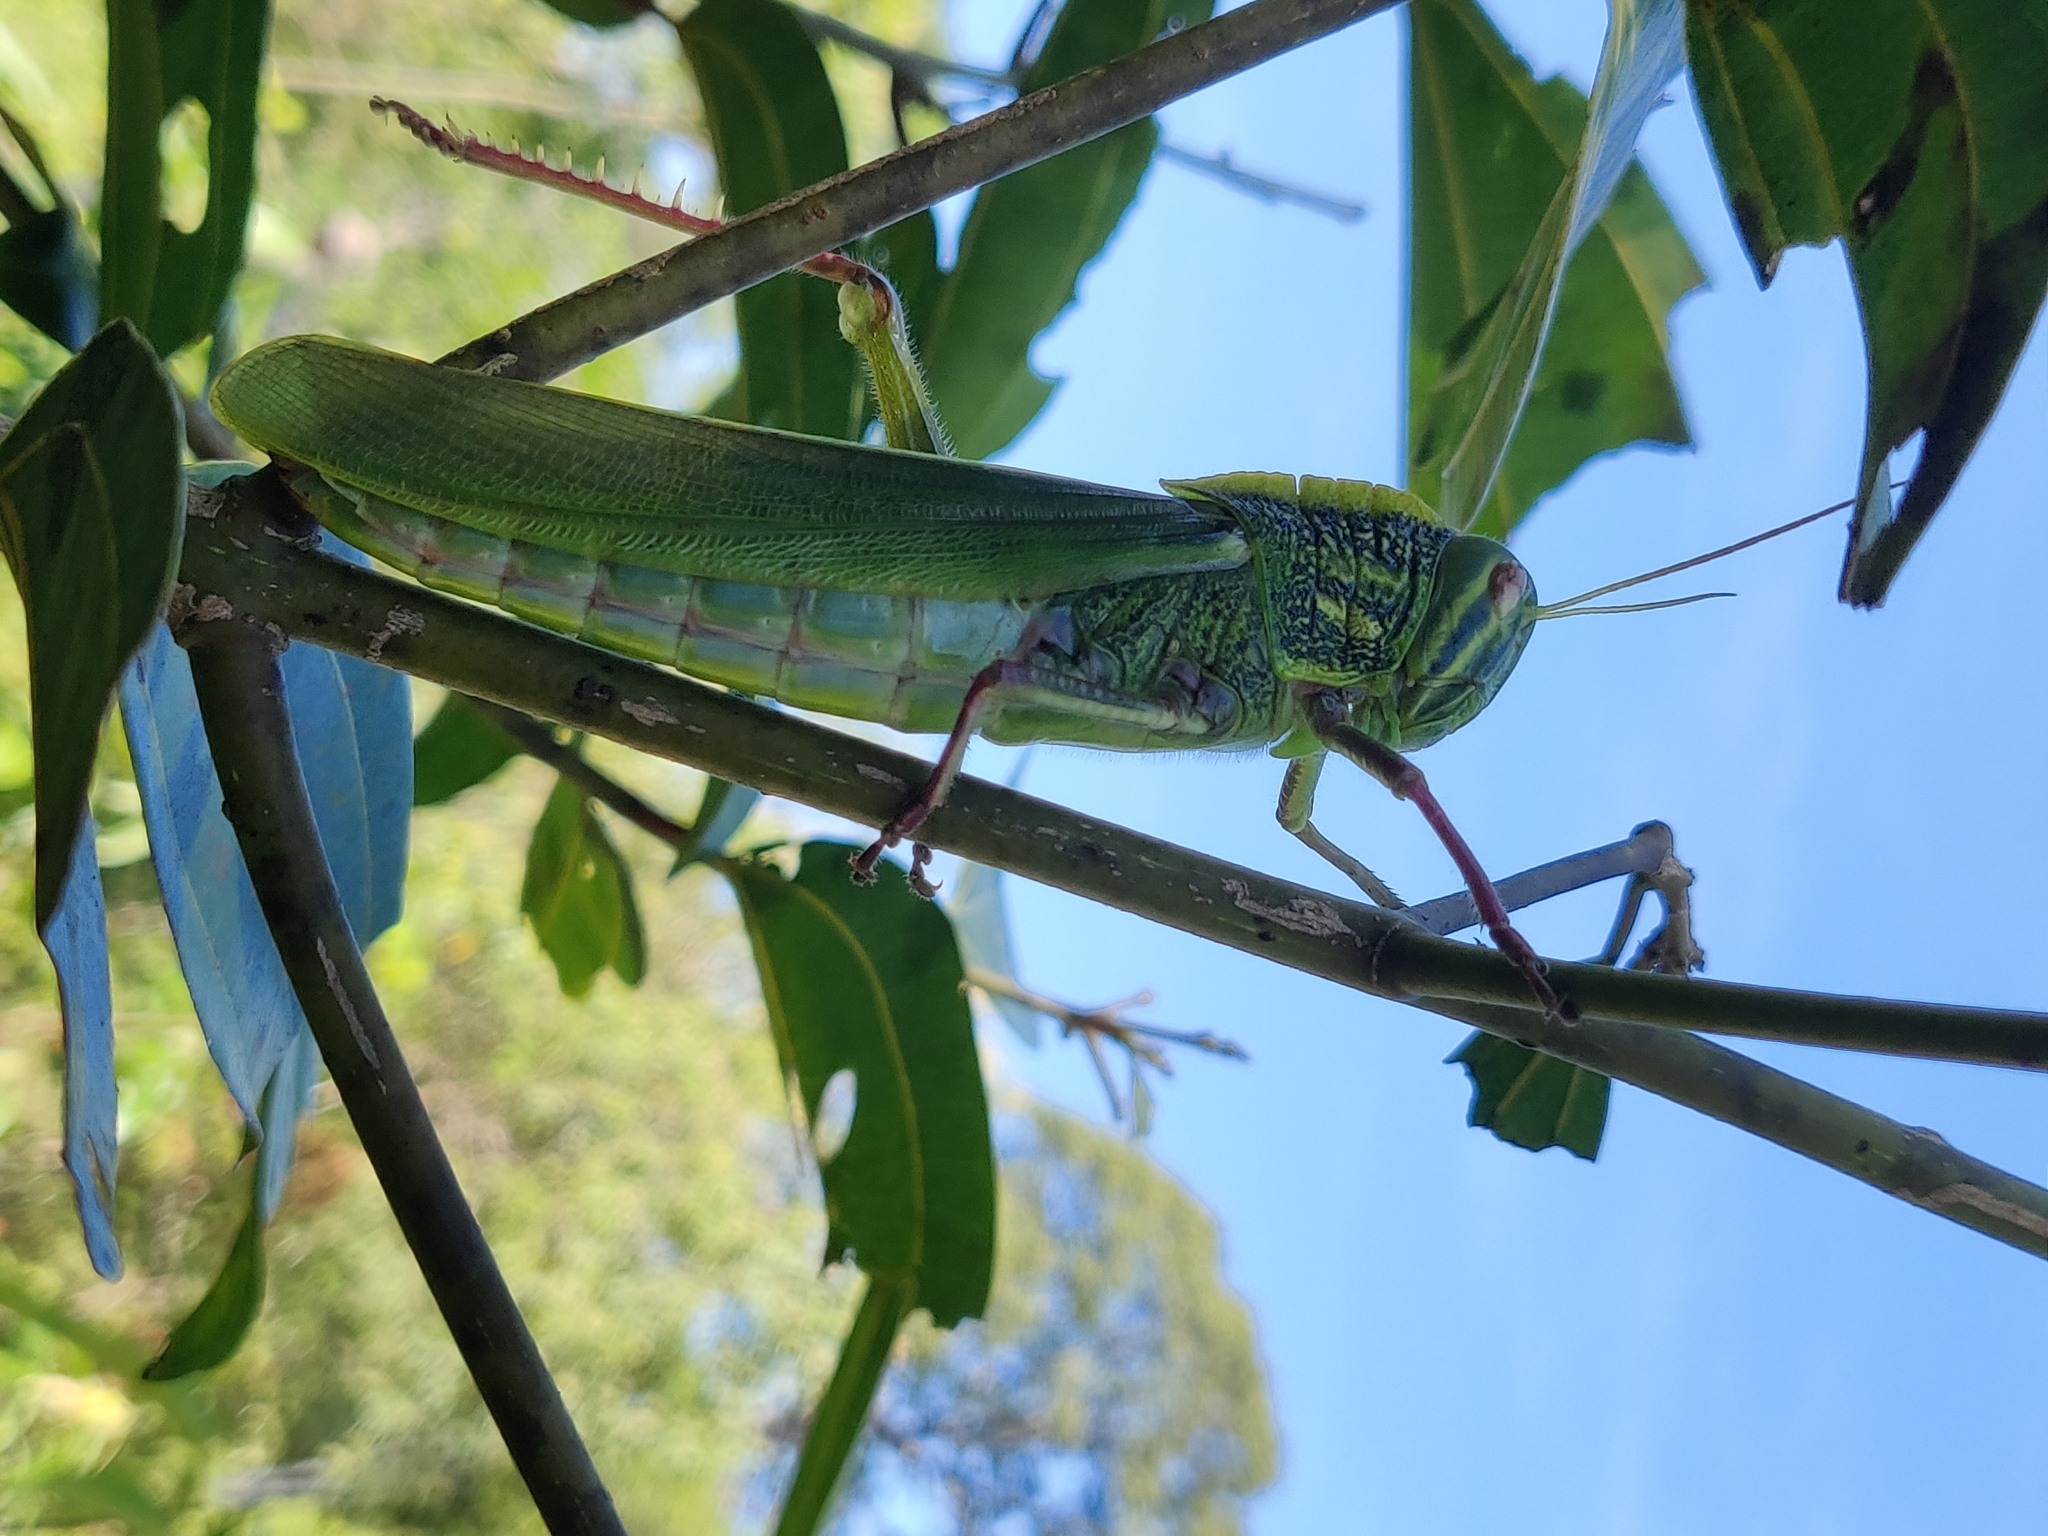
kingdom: Animalia
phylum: Arthropoda
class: Insecta
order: Orthoptera
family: Acrididae
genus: Chondracris
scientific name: Chondracris bengalensis
